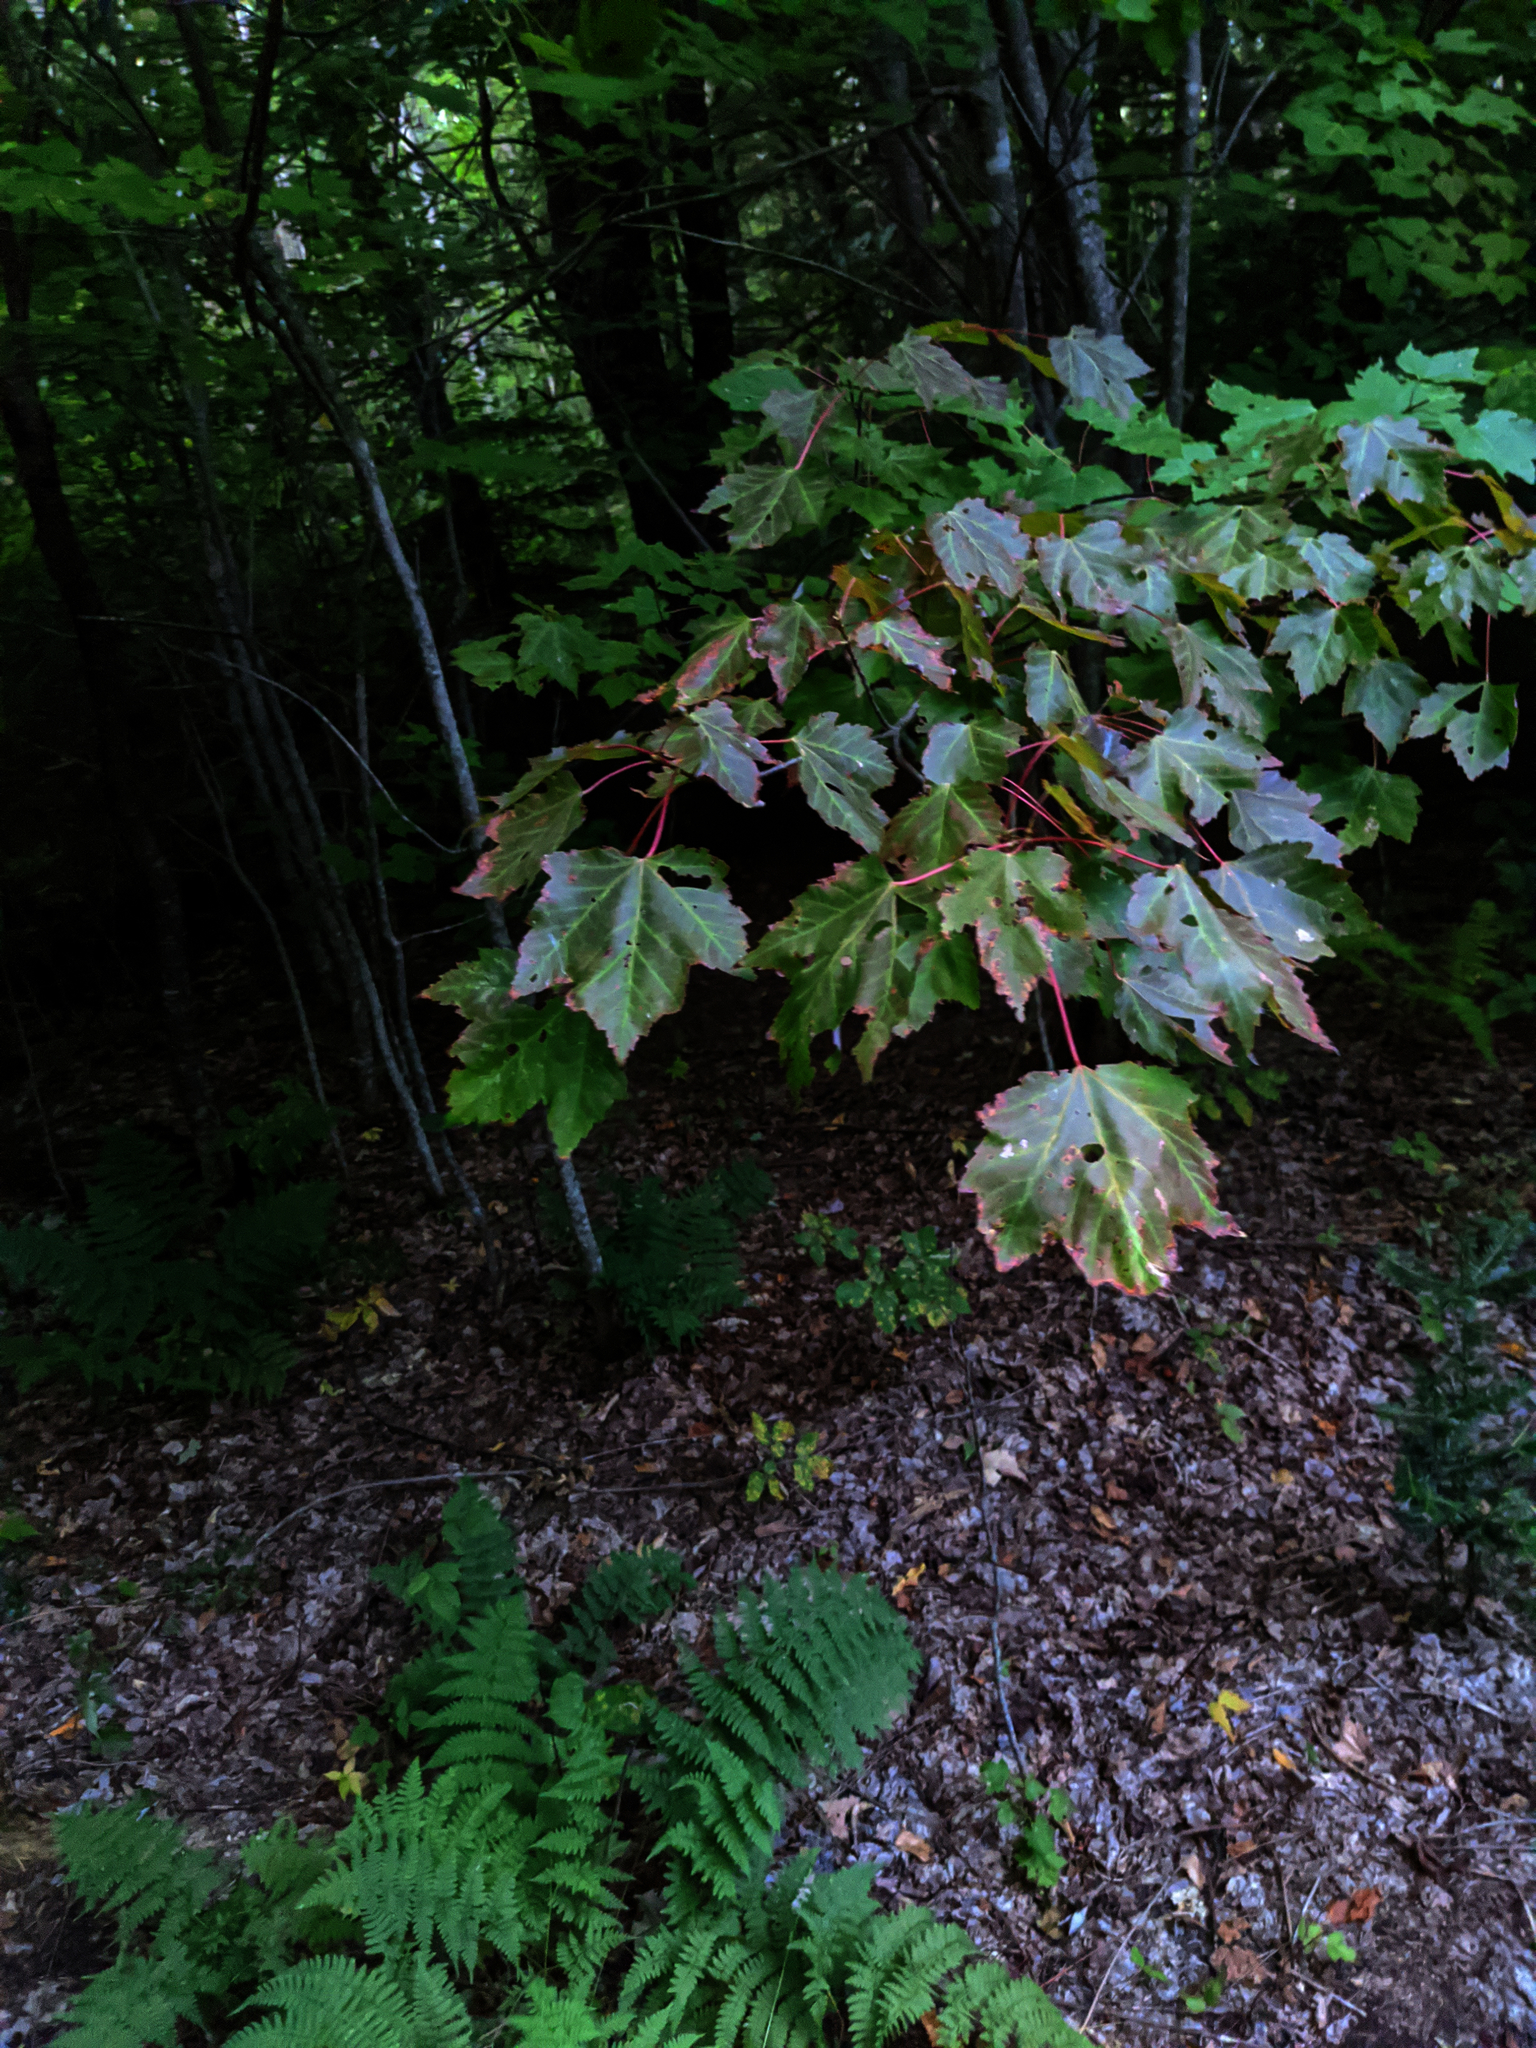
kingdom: Plantae
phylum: Tracheophyta
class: Magnoliopsida
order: Sapindales
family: Sapindaceae
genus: Acer
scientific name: Acer rubrum
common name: Red maple
